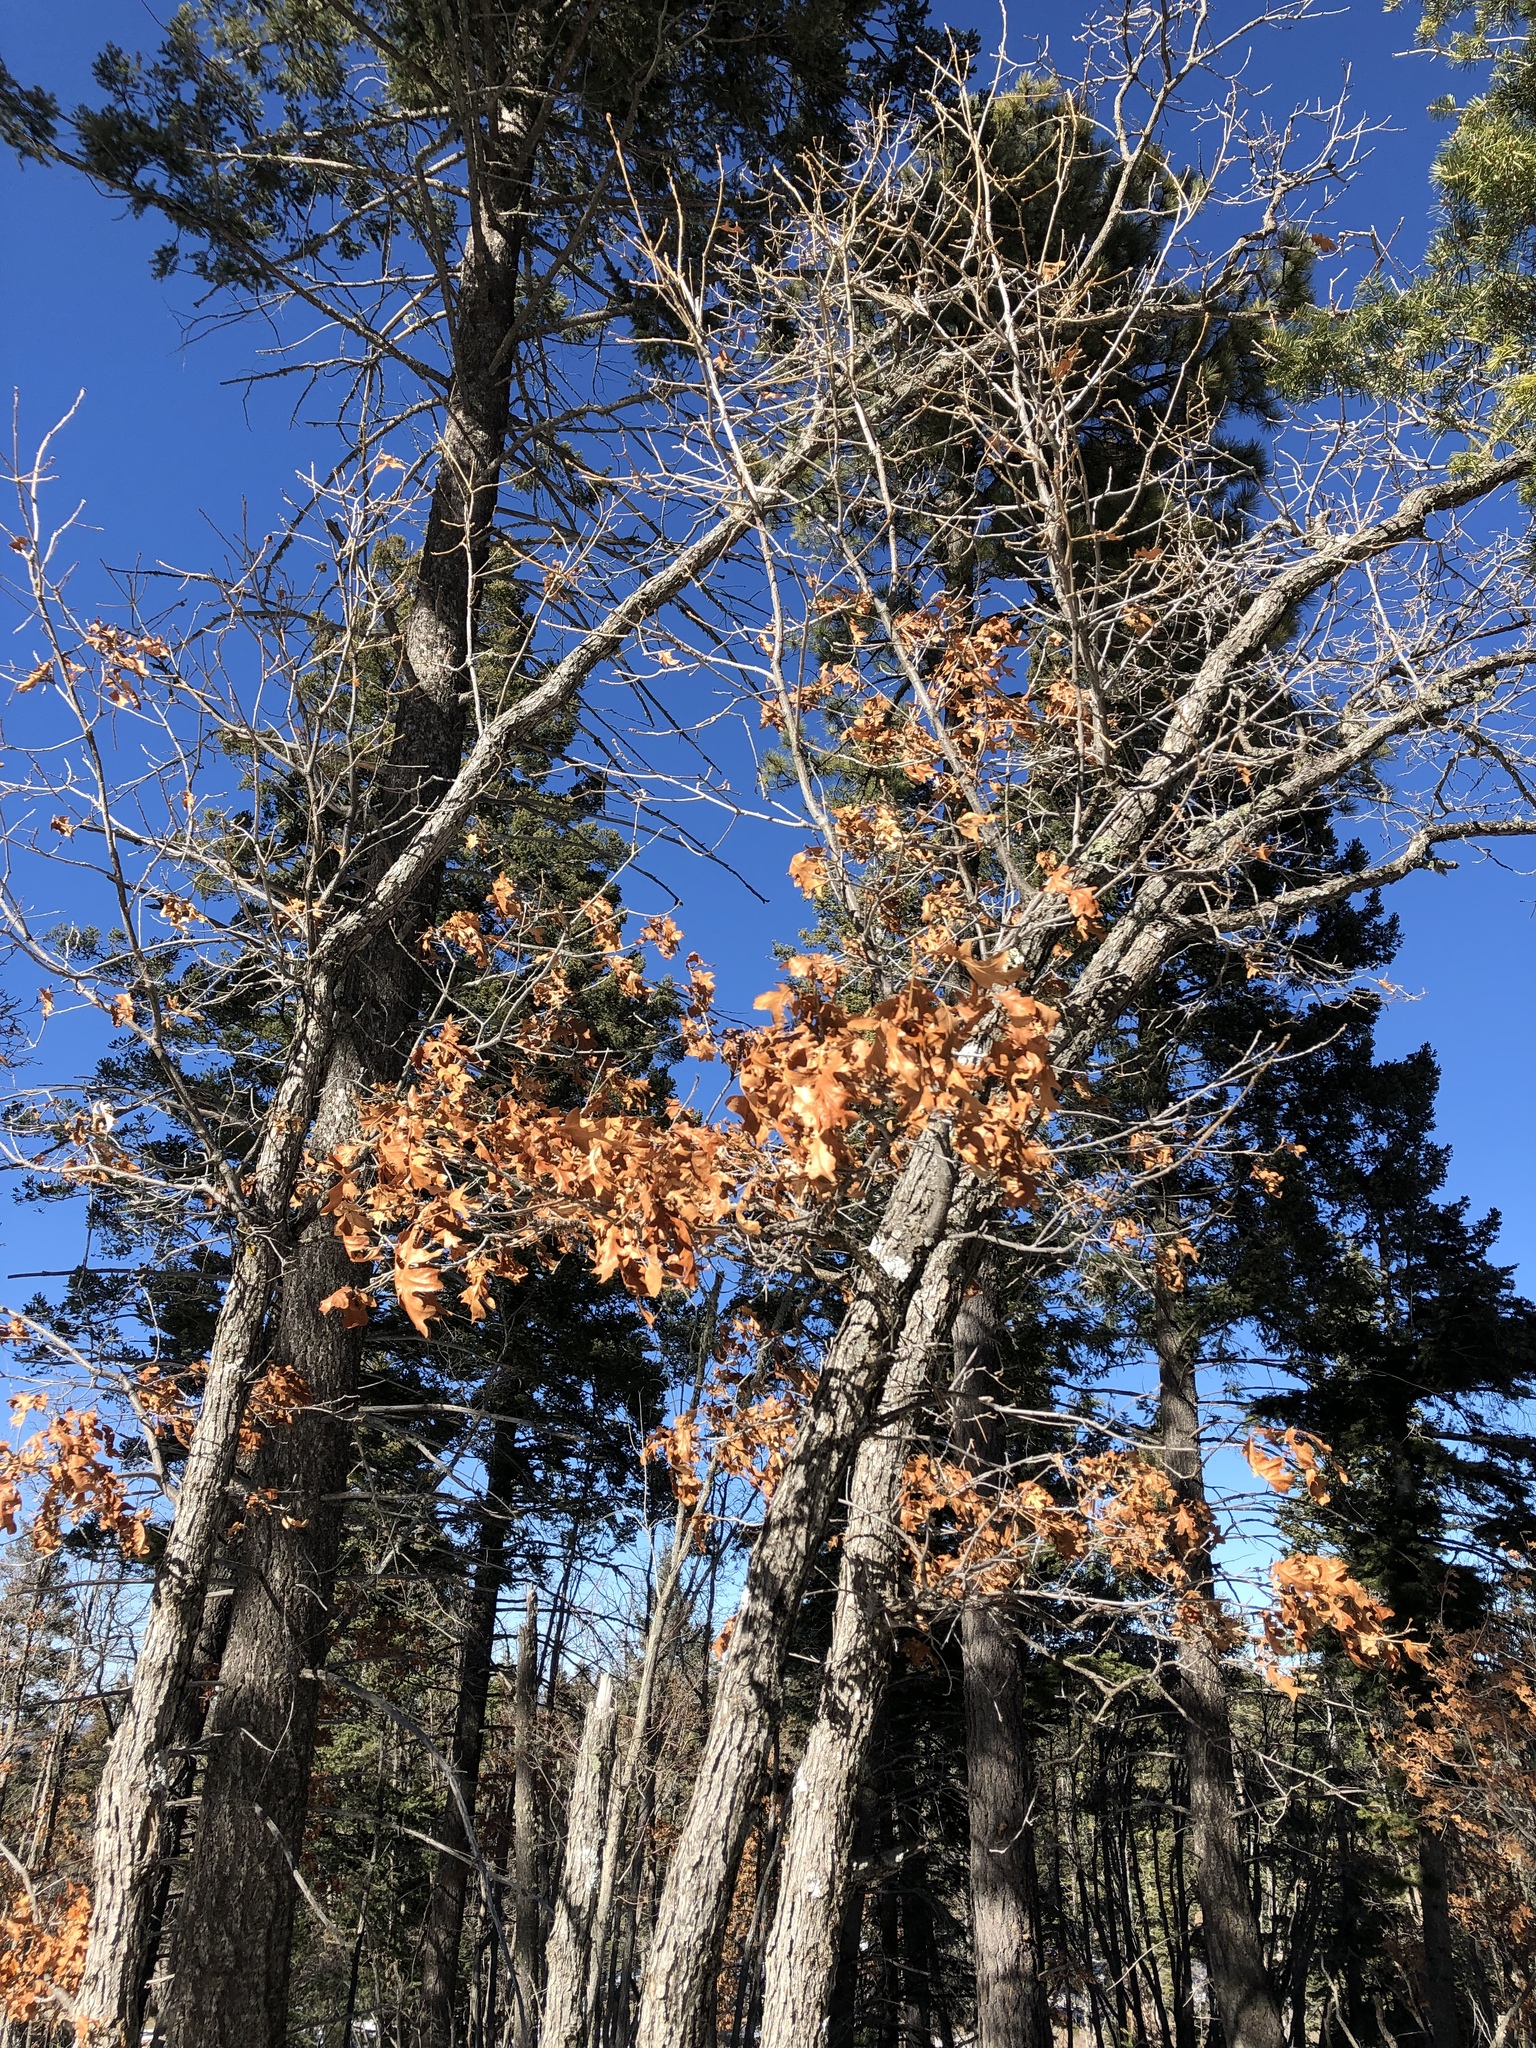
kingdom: Plantae
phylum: Tracheophyta
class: Magnoliopsida
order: Fagales
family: Fagaceae
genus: Quercus
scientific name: Quercus gambelii
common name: Gambel oak
